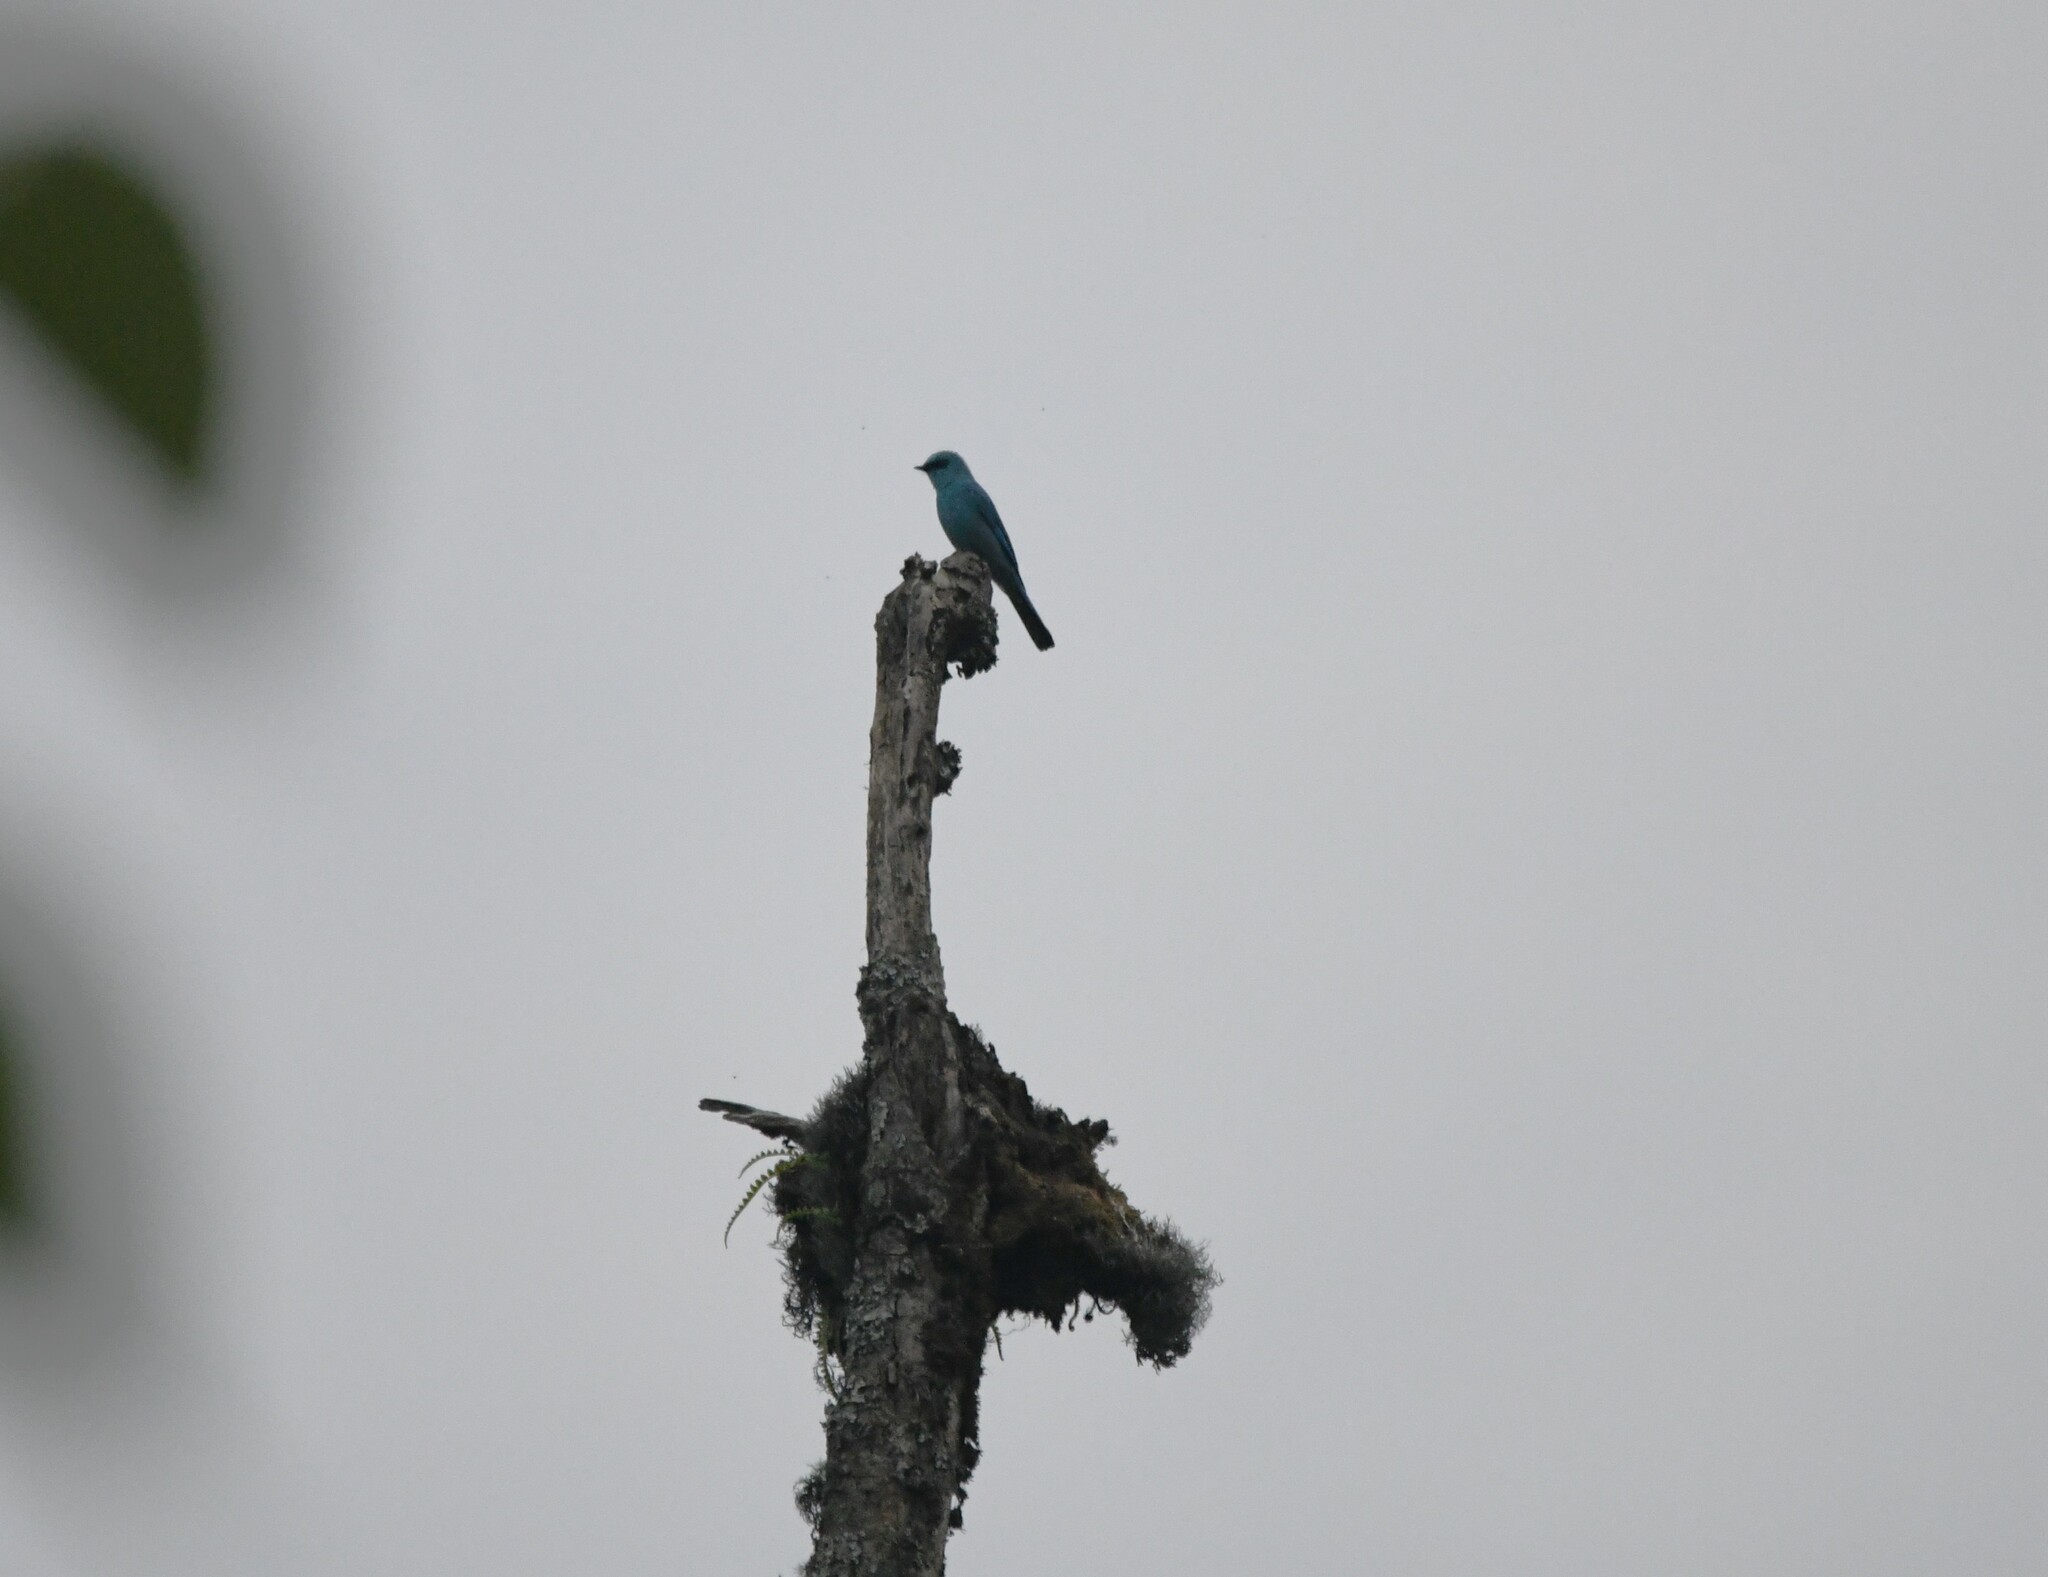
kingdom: Animalia
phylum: Chordata
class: Aves
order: Passeriformes
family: Muscicapidae
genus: Eumyias
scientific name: Eumyias thalassinus
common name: Verditer flycatcher
